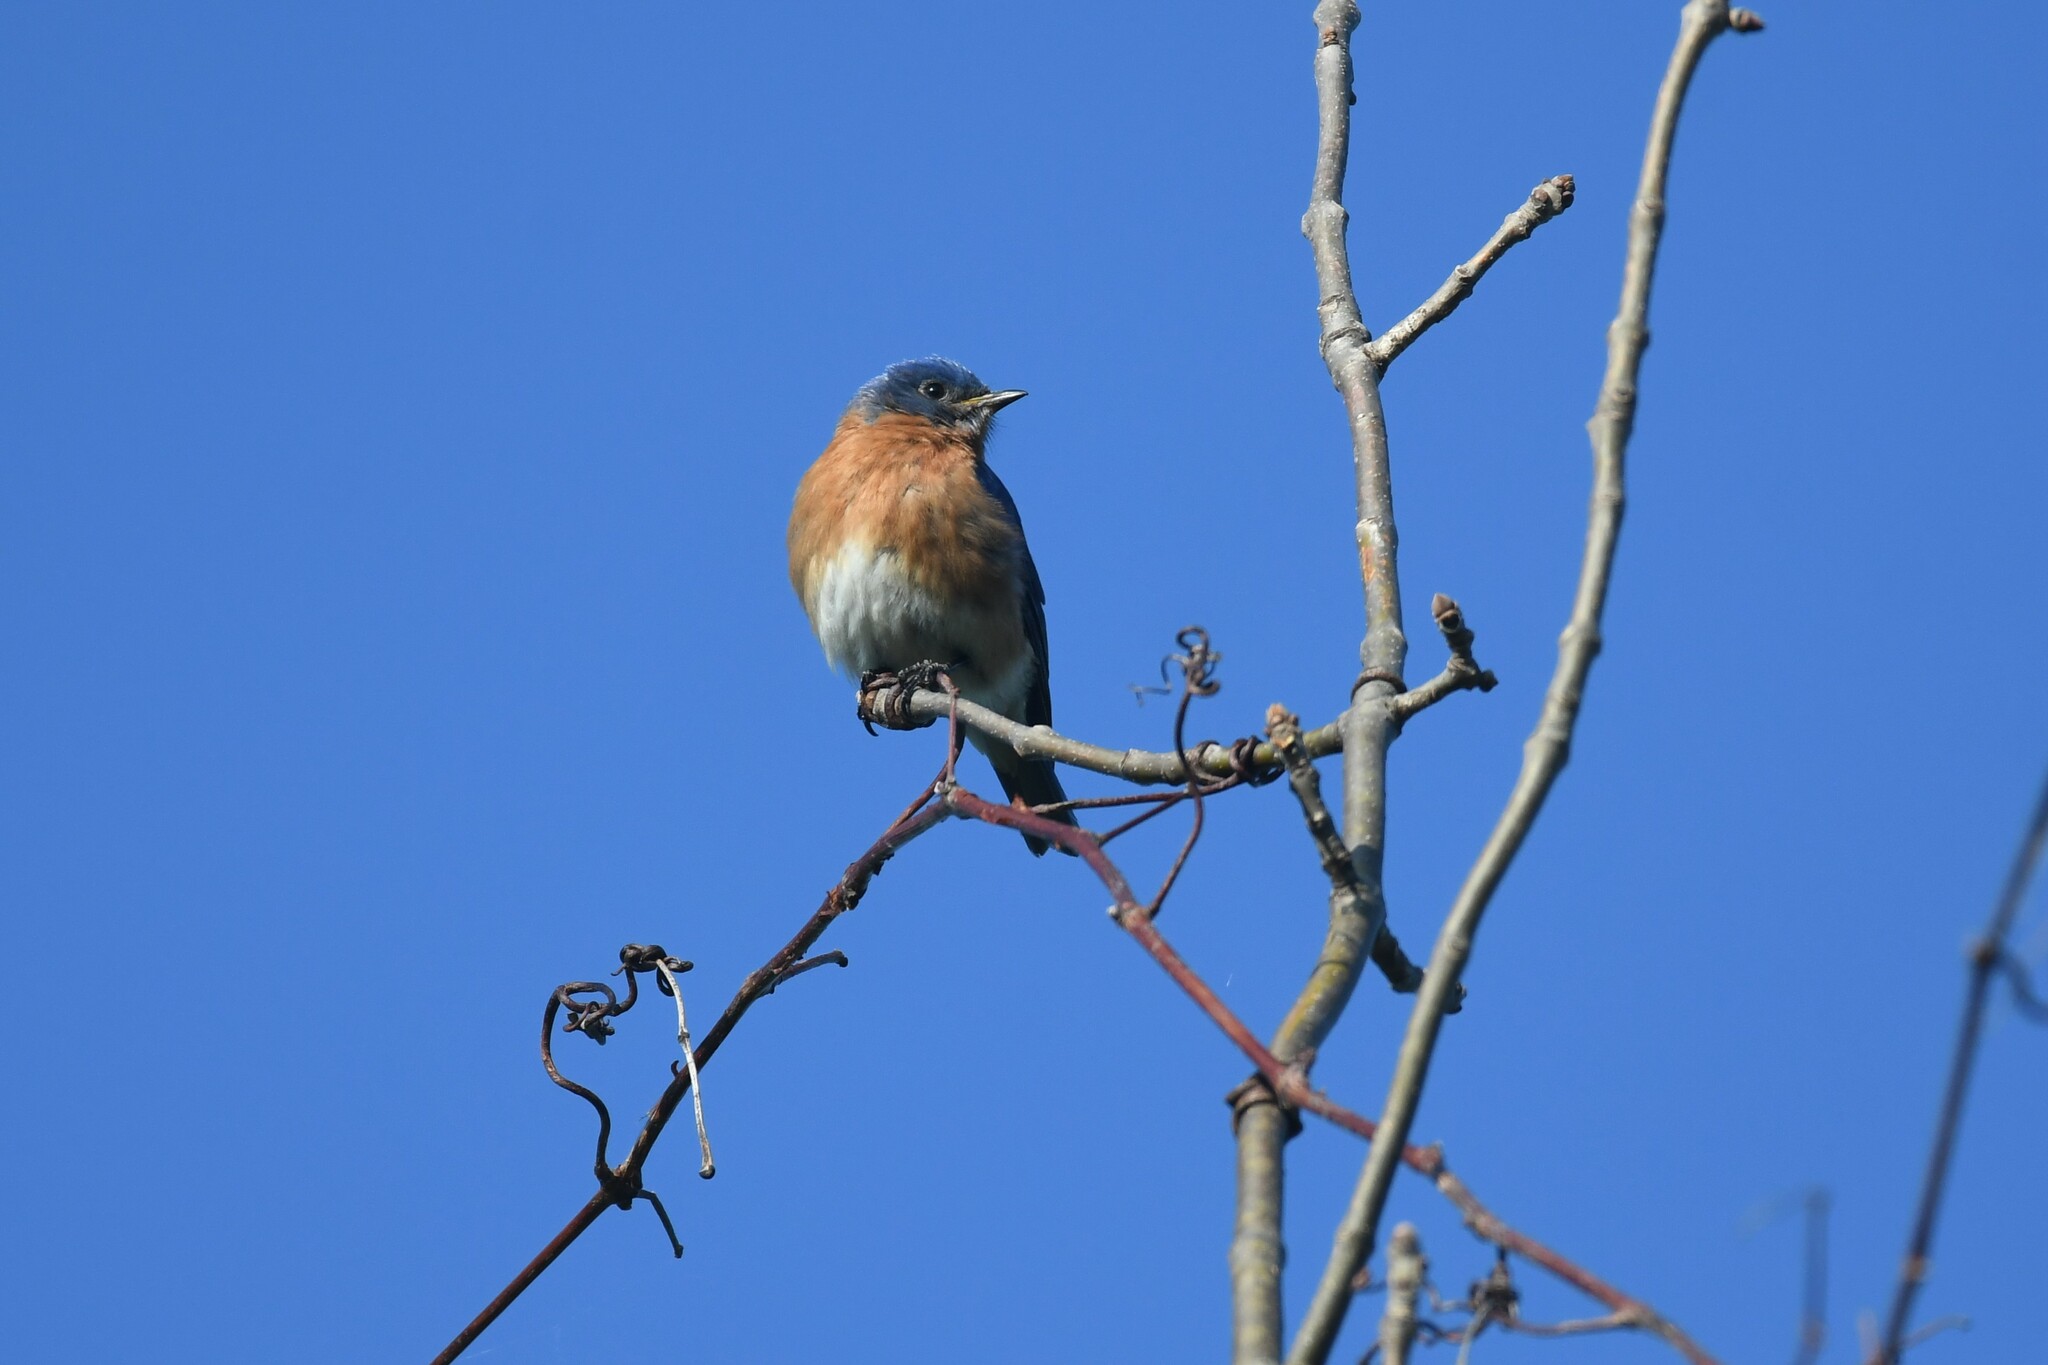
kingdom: Animalia
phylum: Chordata
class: Aves
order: Passeriformes
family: Turdidae
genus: Sialia
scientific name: Sialia sialis
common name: Eastern bluebird
